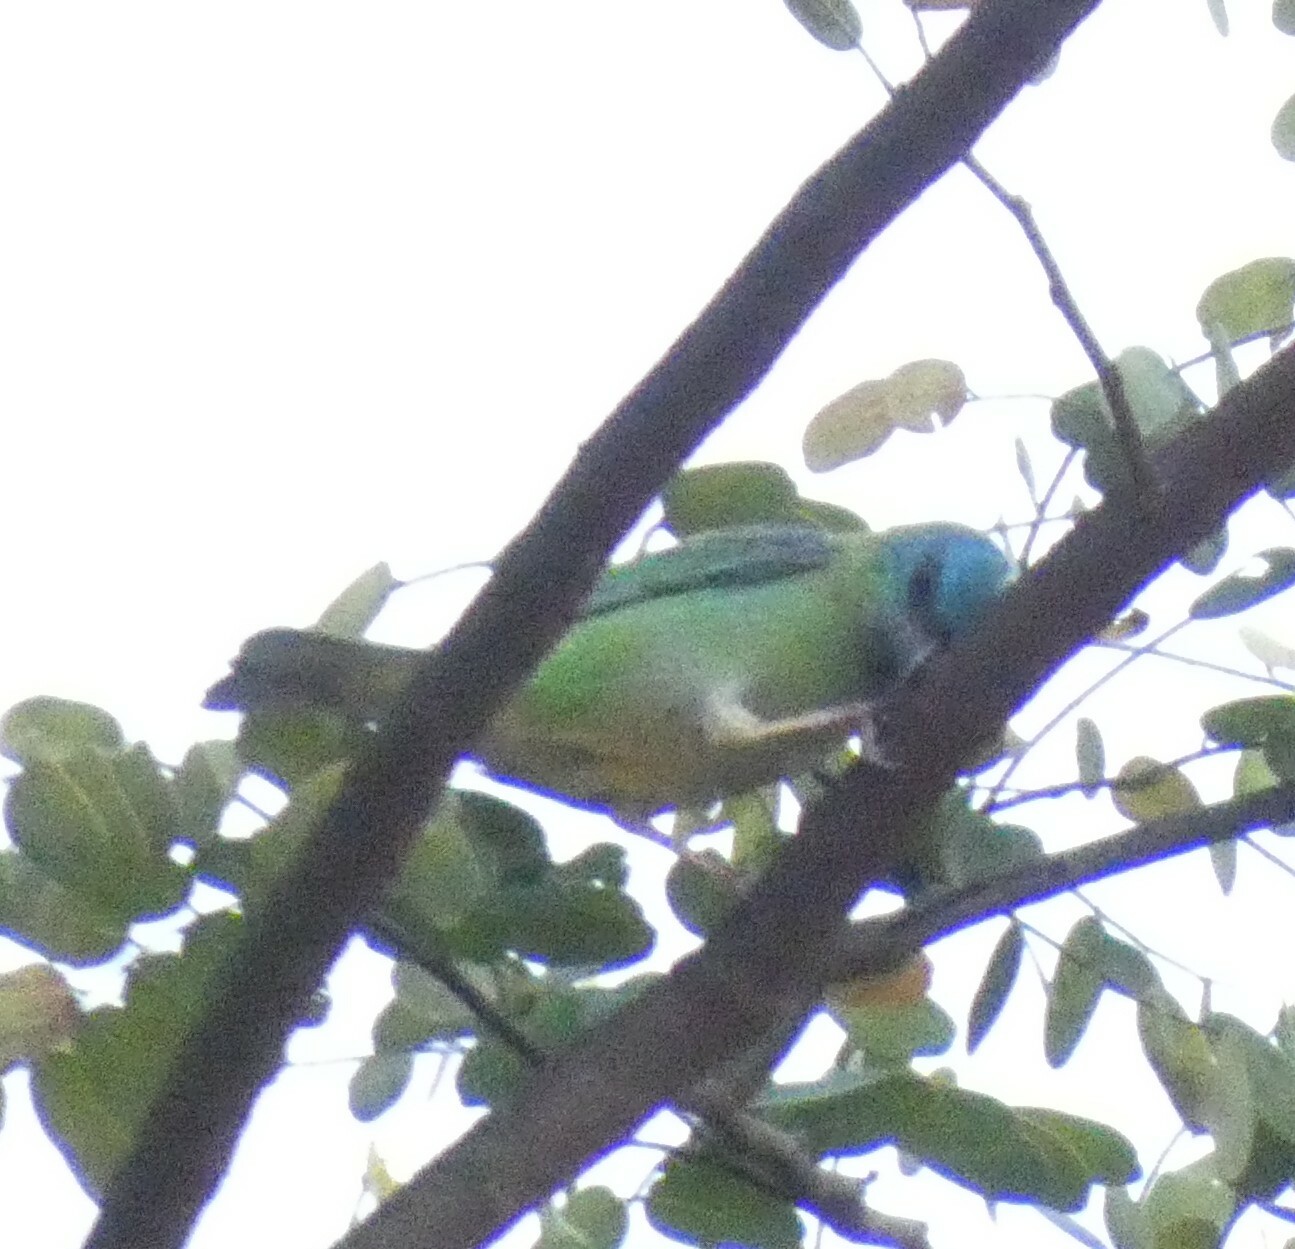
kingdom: Animalia
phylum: Chordata
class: Aves
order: Passeriformes
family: Thraupidae
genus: Dacnis
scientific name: Dacnis cayana
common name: Blue dacnis
